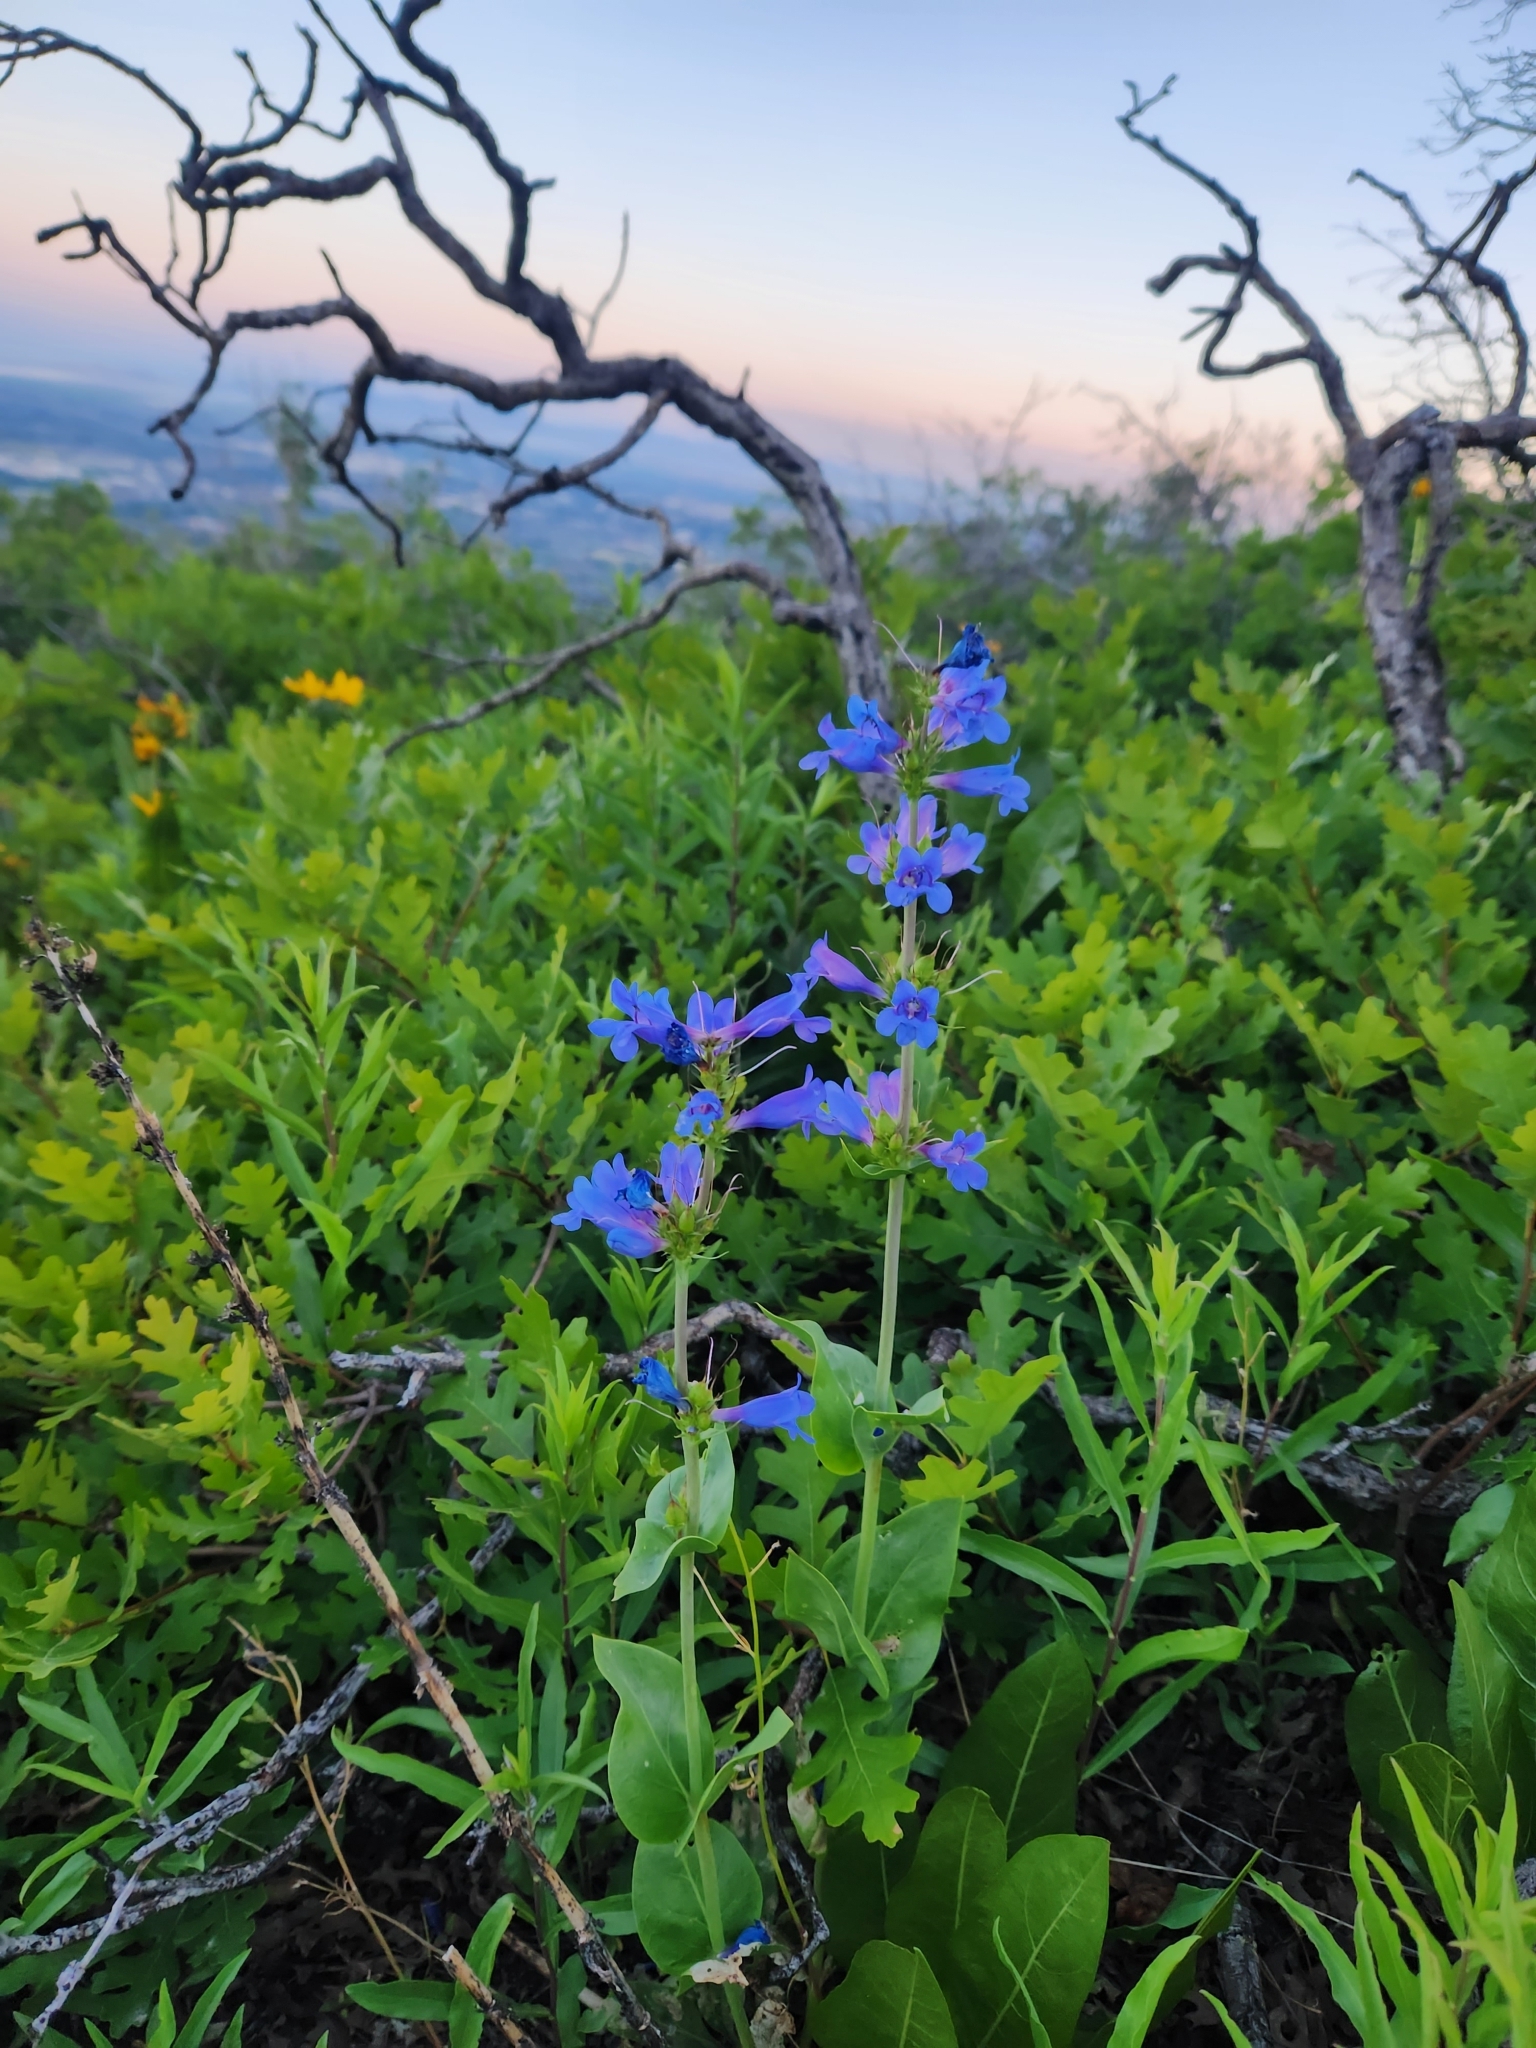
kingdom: Plantae
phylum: Tracheophyta
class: Magnoliopsida
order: Lamiales
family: Plantaginaceae
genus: Penstemon
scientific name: Penstemon cyananthus
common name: Wasatch penstemon
